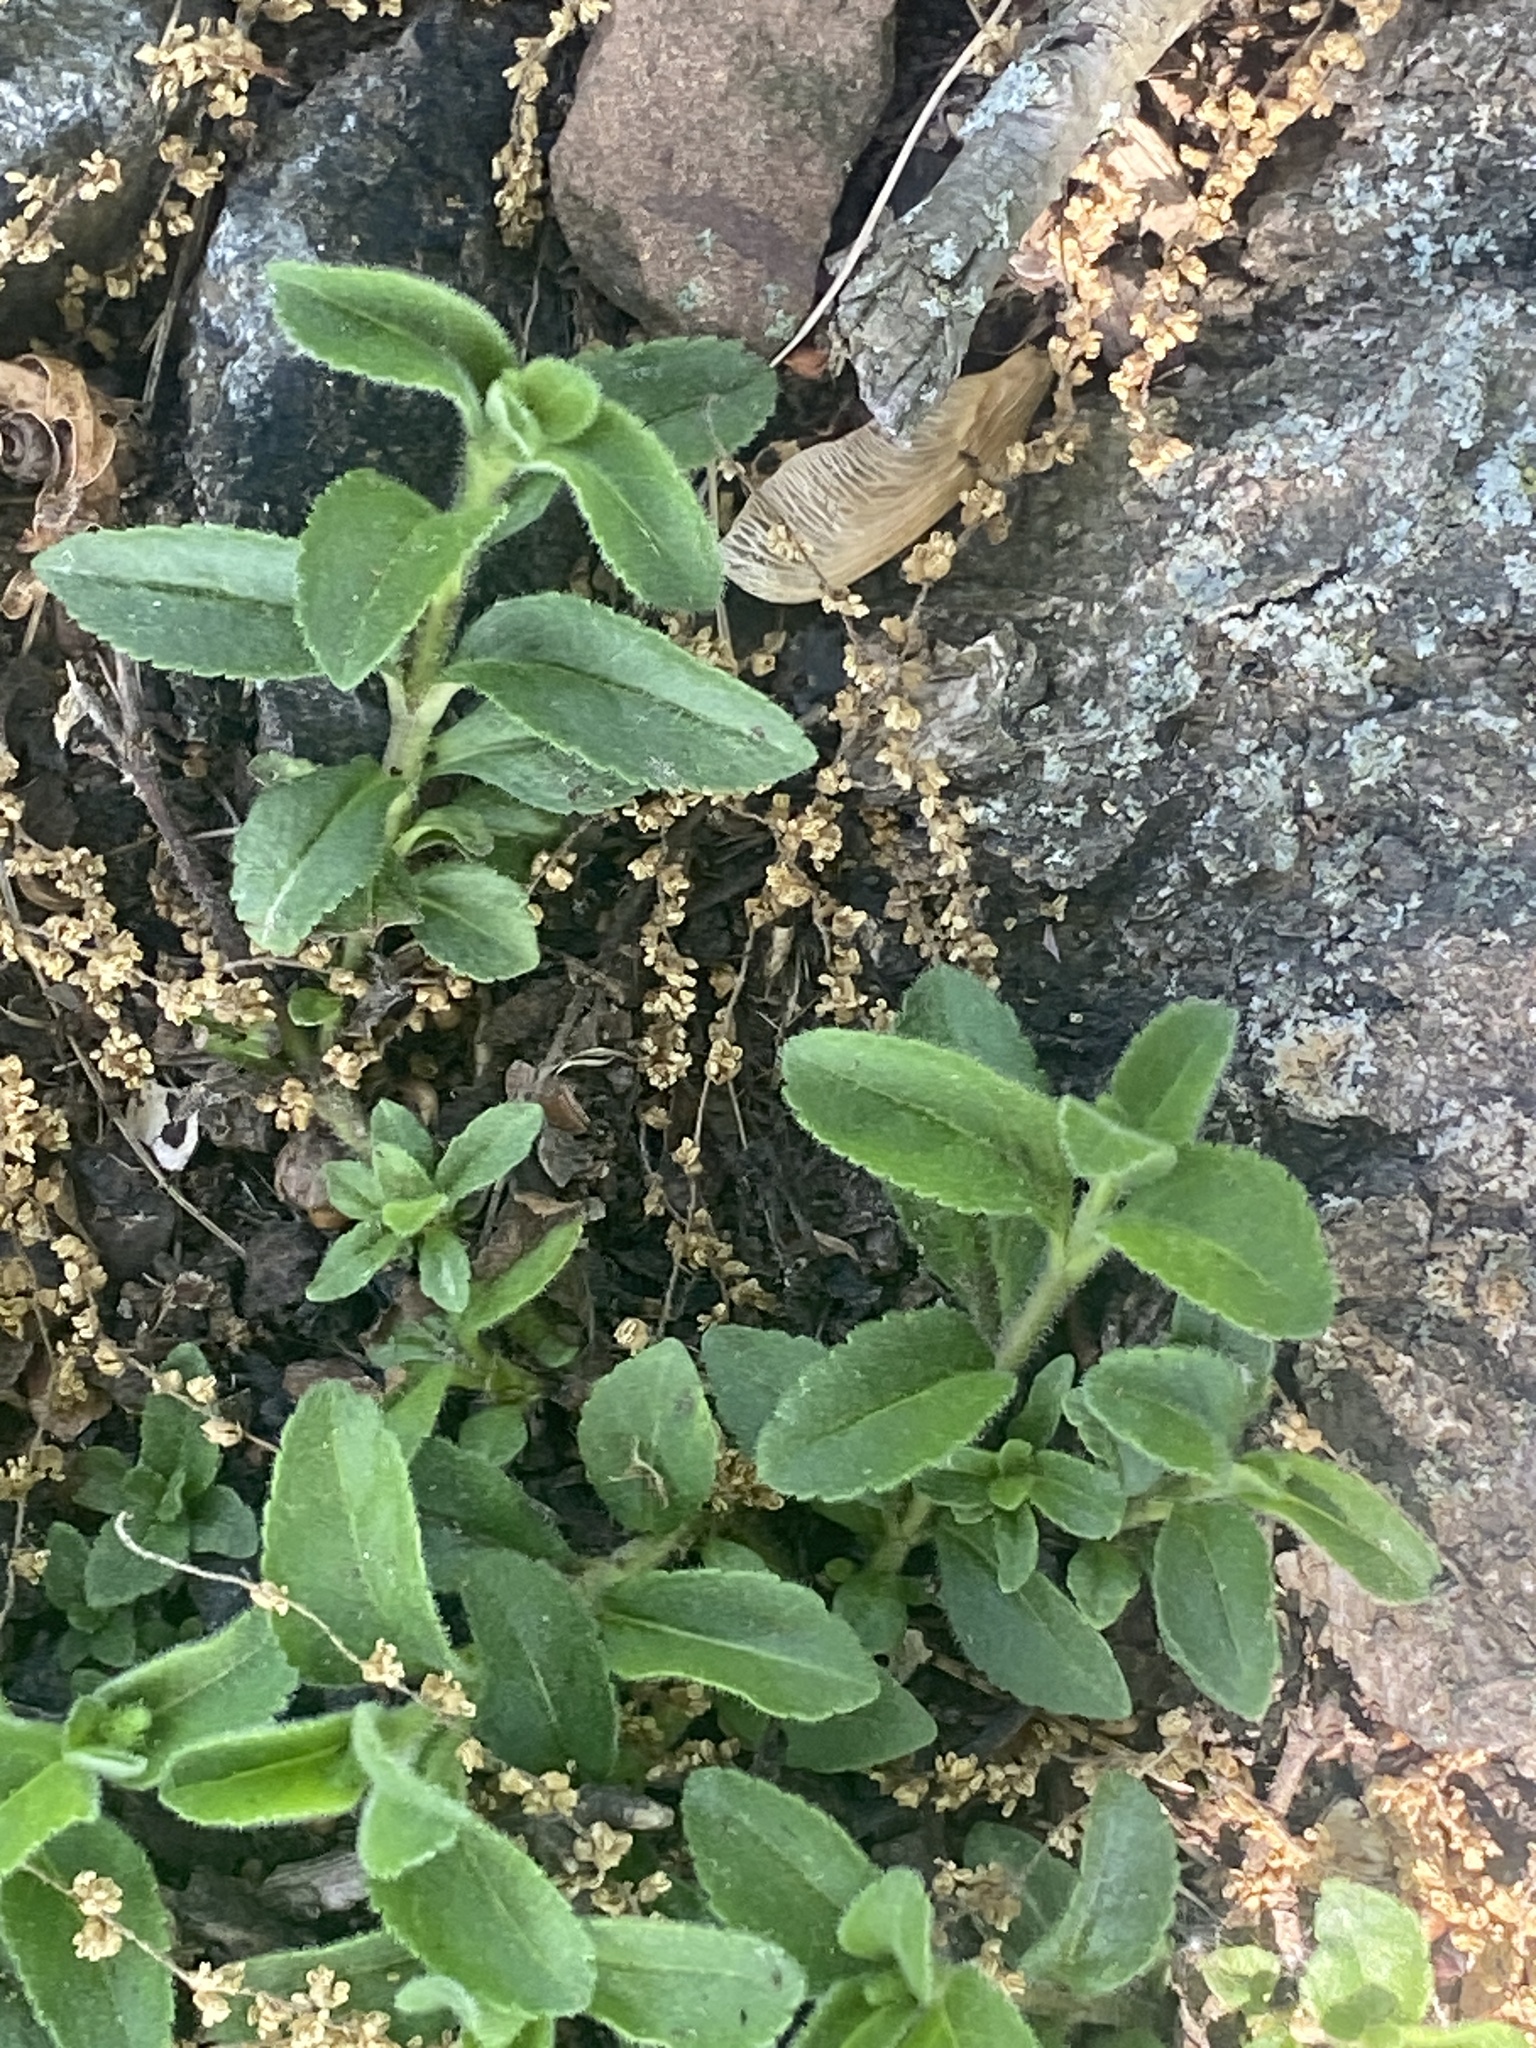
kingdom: Plantae
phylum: Tracheophyta
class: Magnoliopsida
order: Lamiales
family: Plantaginaceae
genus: Veronica
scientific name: Veronica officinalis
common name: Common speedwell
